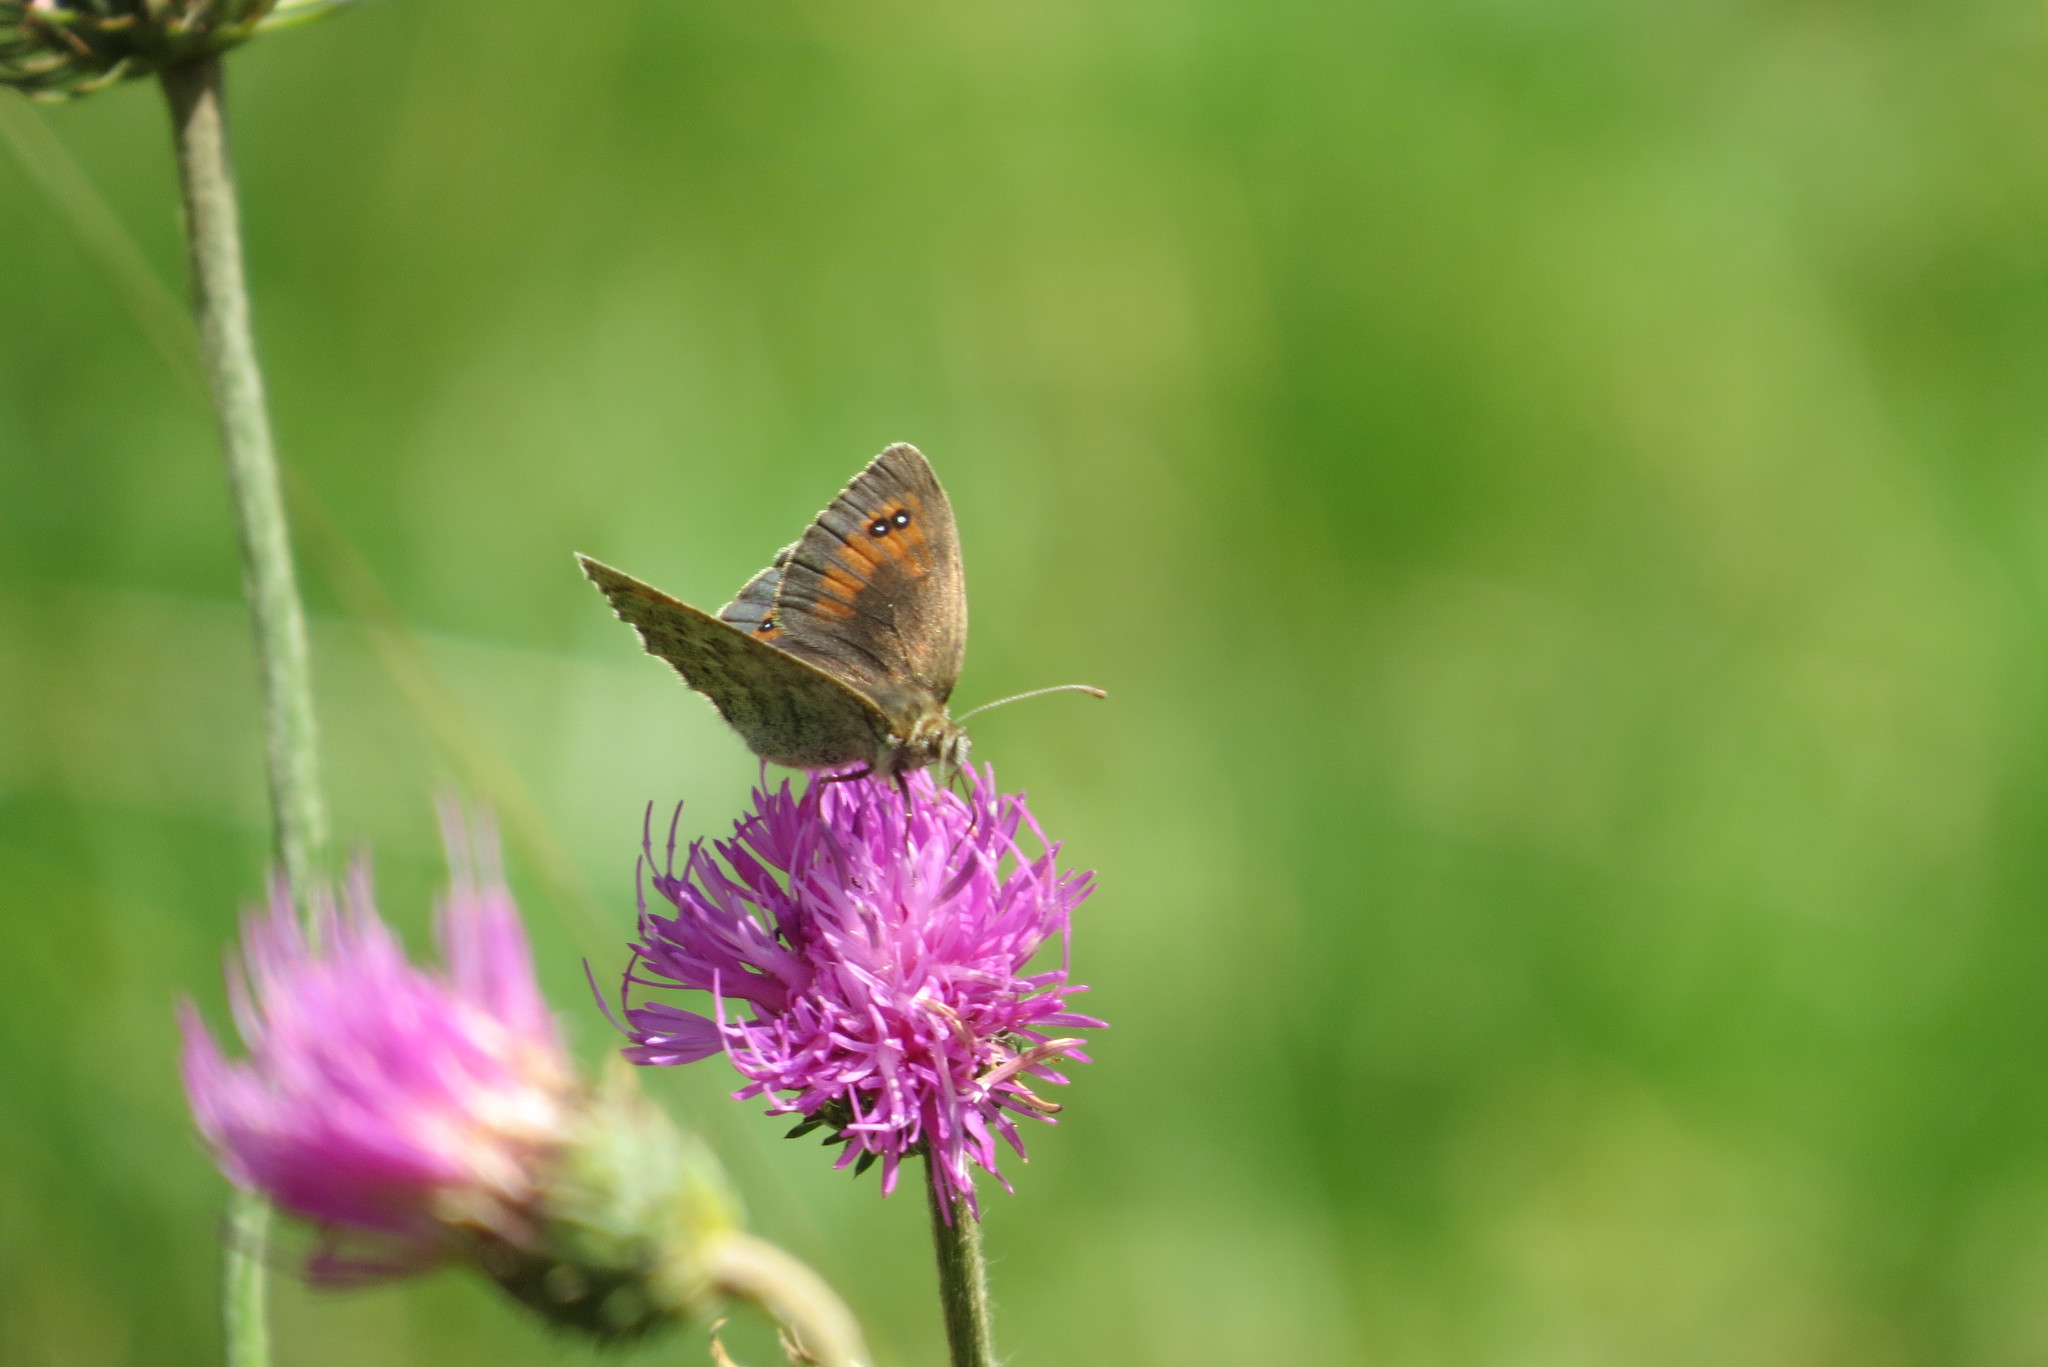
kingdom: Animalia
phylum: Arthropoda
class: Insecta
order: Lepidoptera
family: Nymphalidae
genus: Erebia
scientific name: Erebia cassioides
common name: Common brassy ringlet
